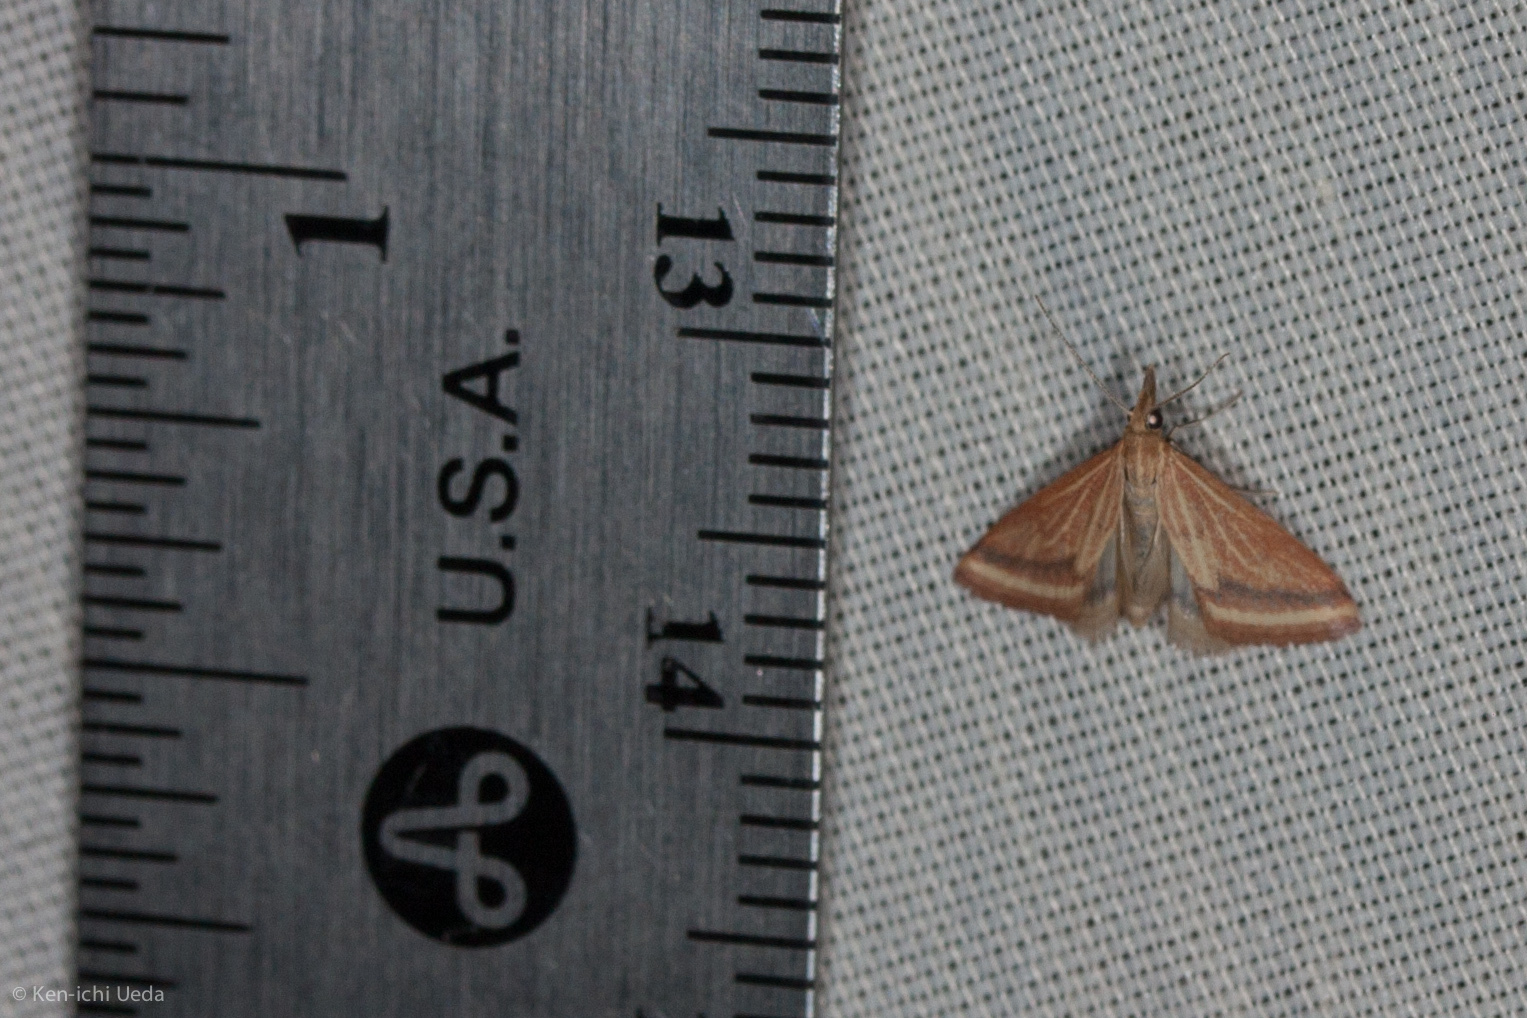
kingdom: Animalia
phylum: Arthropoda
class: Insecta
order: Lepidoptera
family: Crambidae
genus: Microtheoris
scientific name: Microtheoris ophionalis
